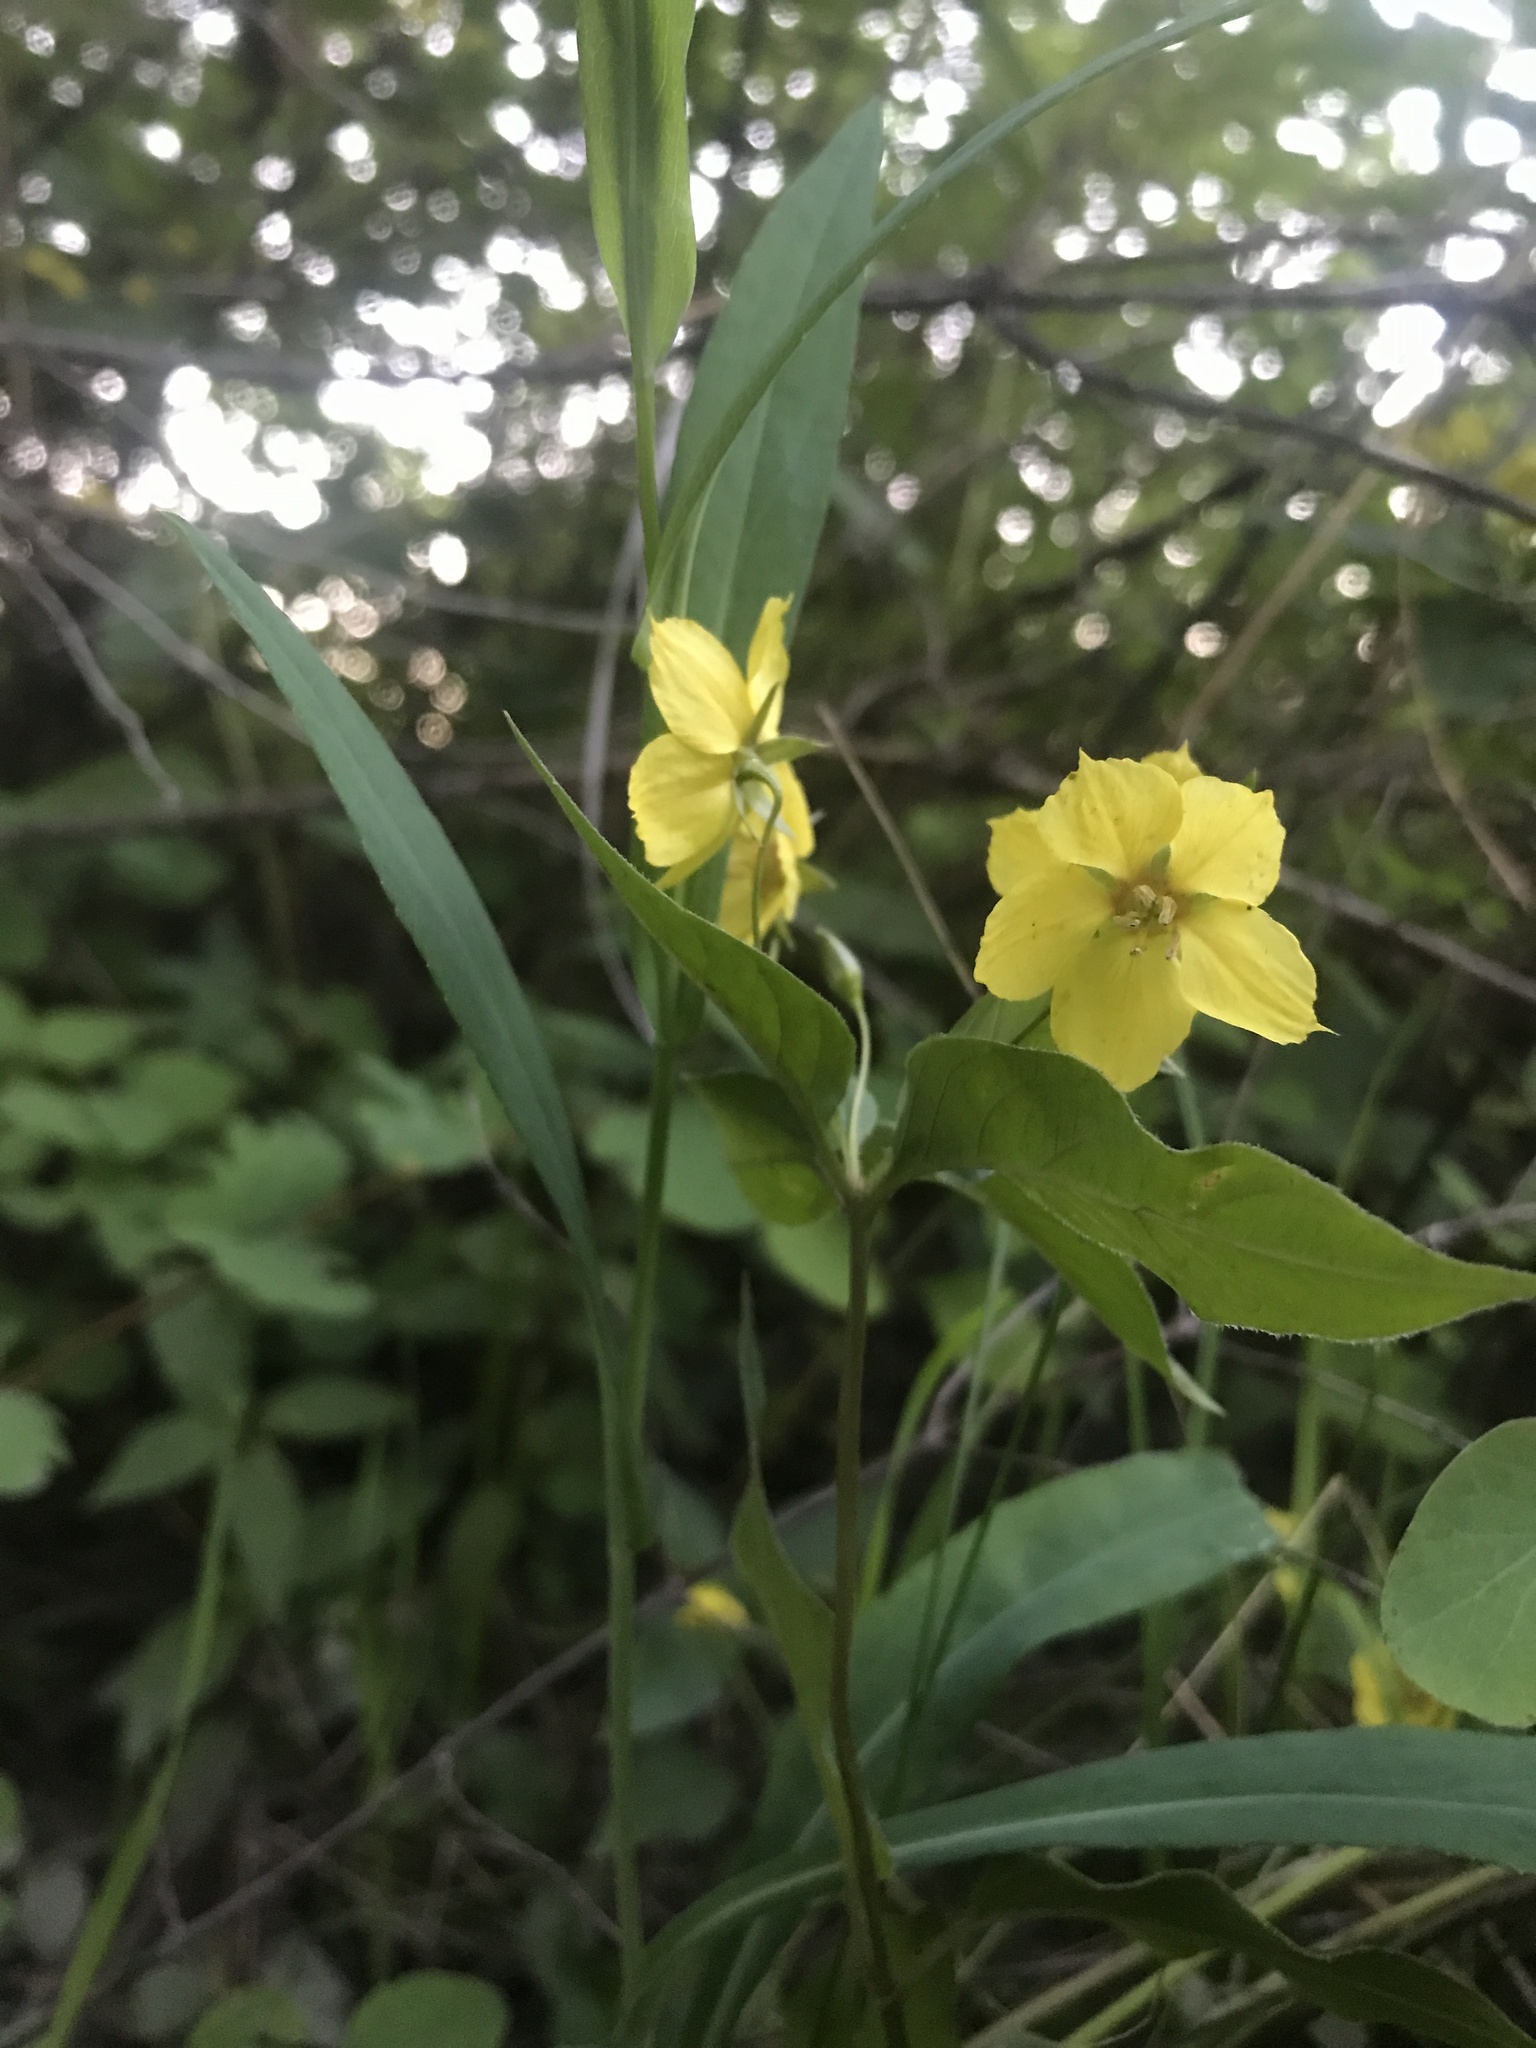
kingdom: Plantae
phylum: Tracheophyta
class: Magnoliopsida
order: Ericales
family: Primulaceae
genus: Lysimachia
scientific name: Lysimachia ciliata
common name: Fringed loosestrife
